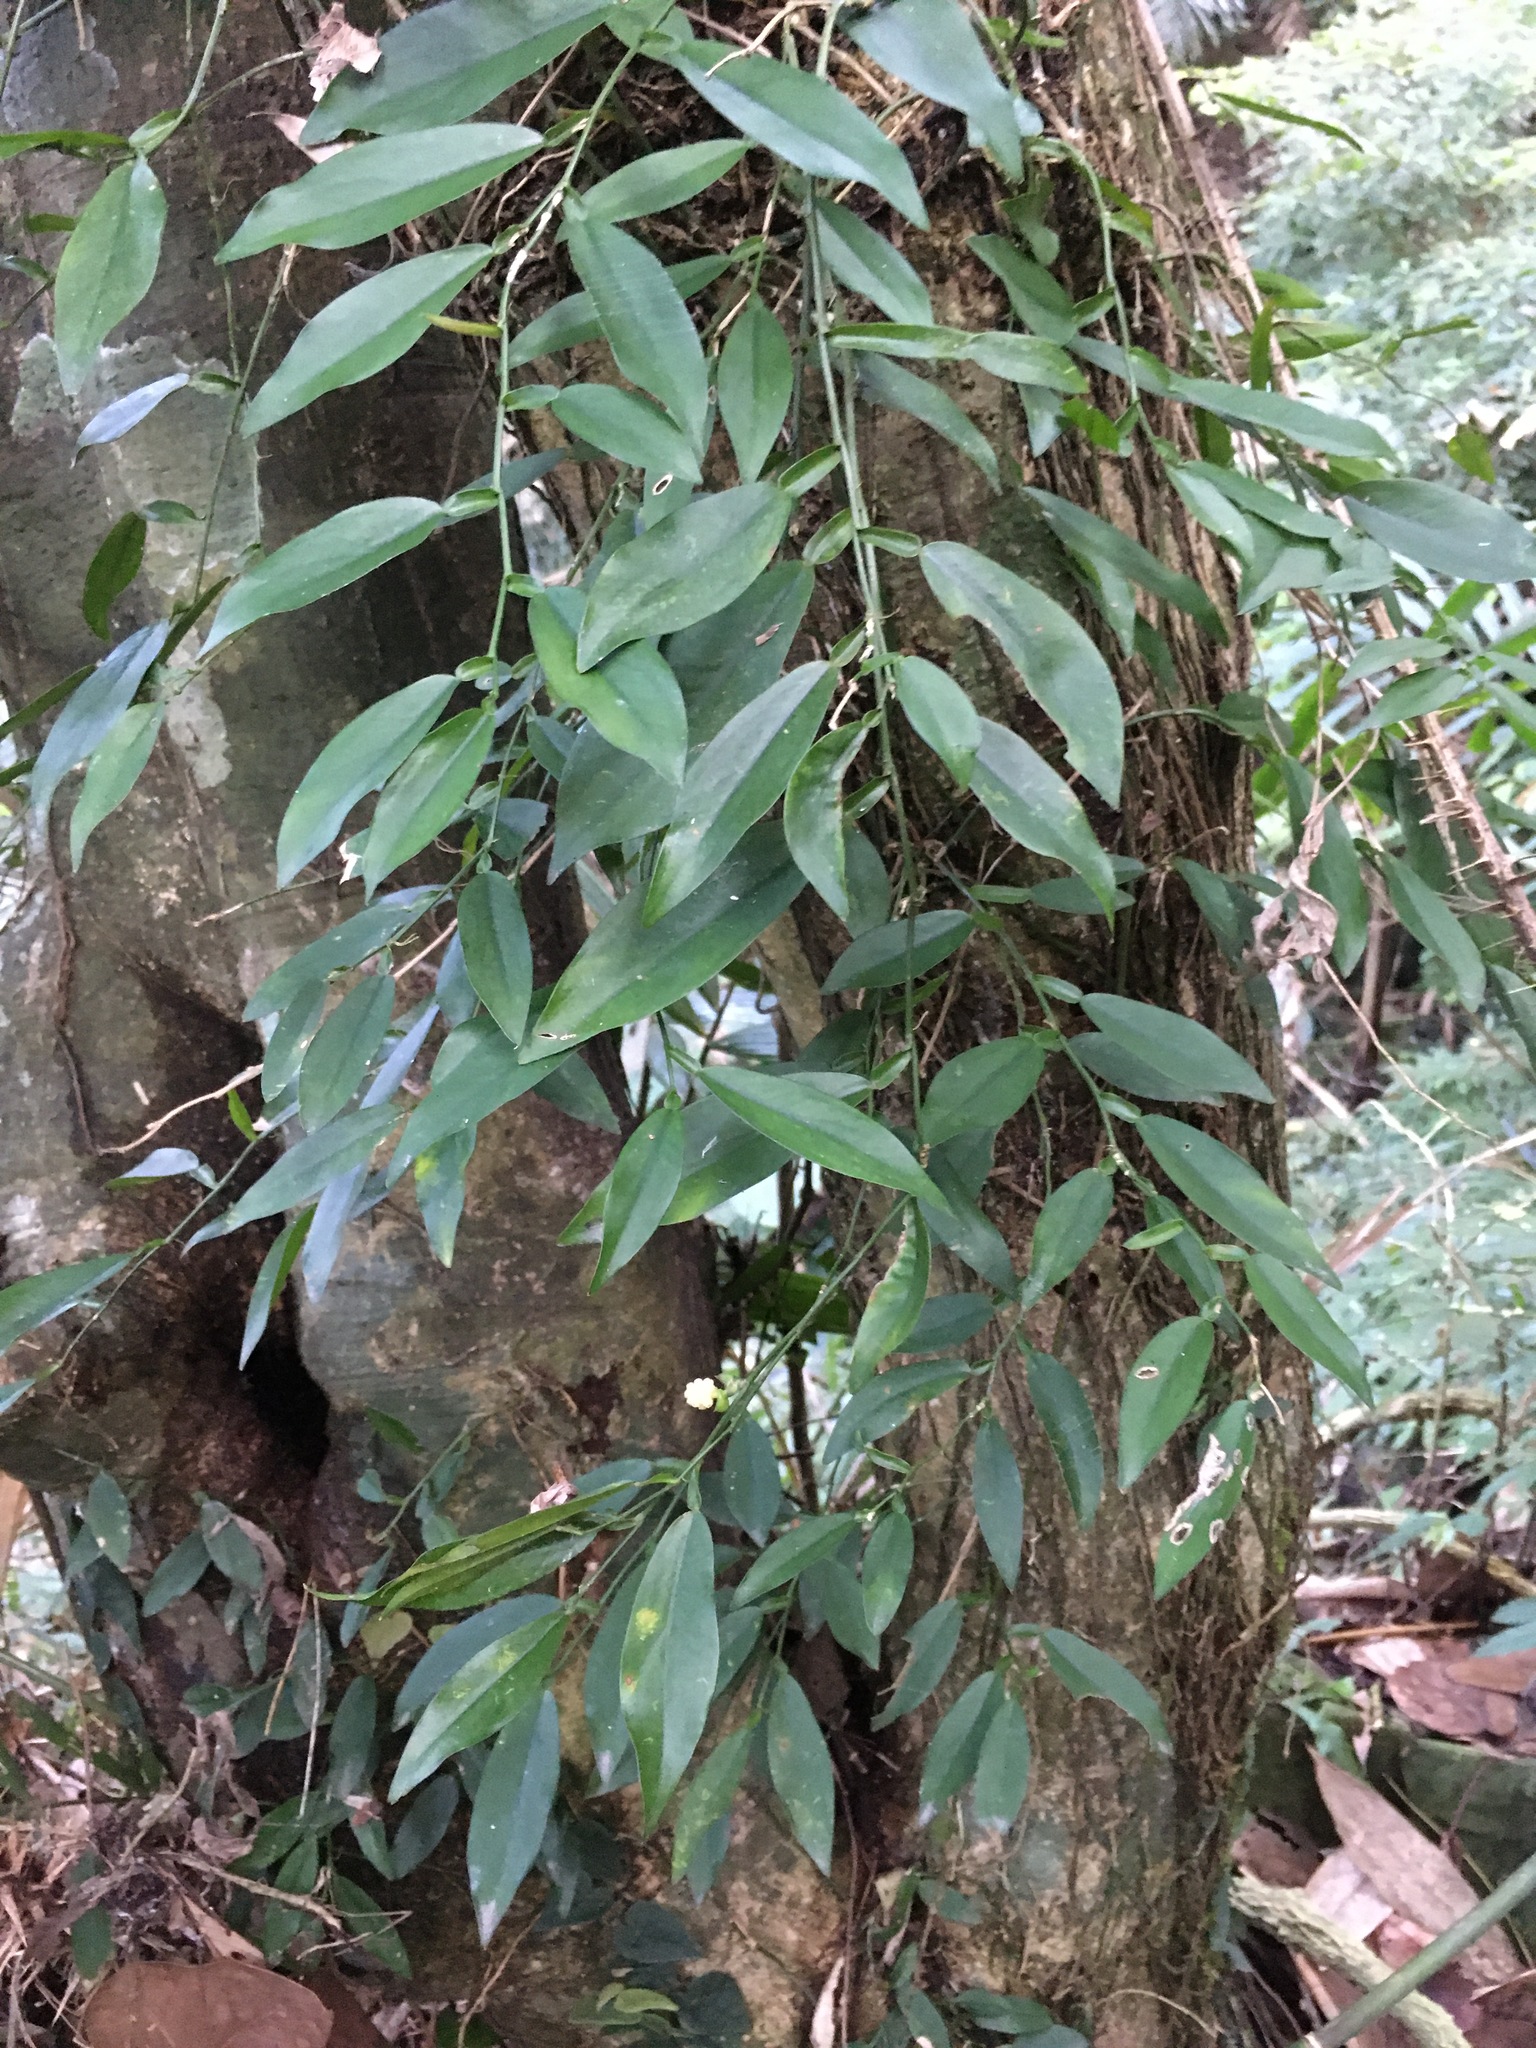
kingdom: Plantae
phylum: Tracheophyta
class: Liliopsida
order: Alismatales
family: Araceae
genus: Pothos
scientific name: Pothos chinensis
